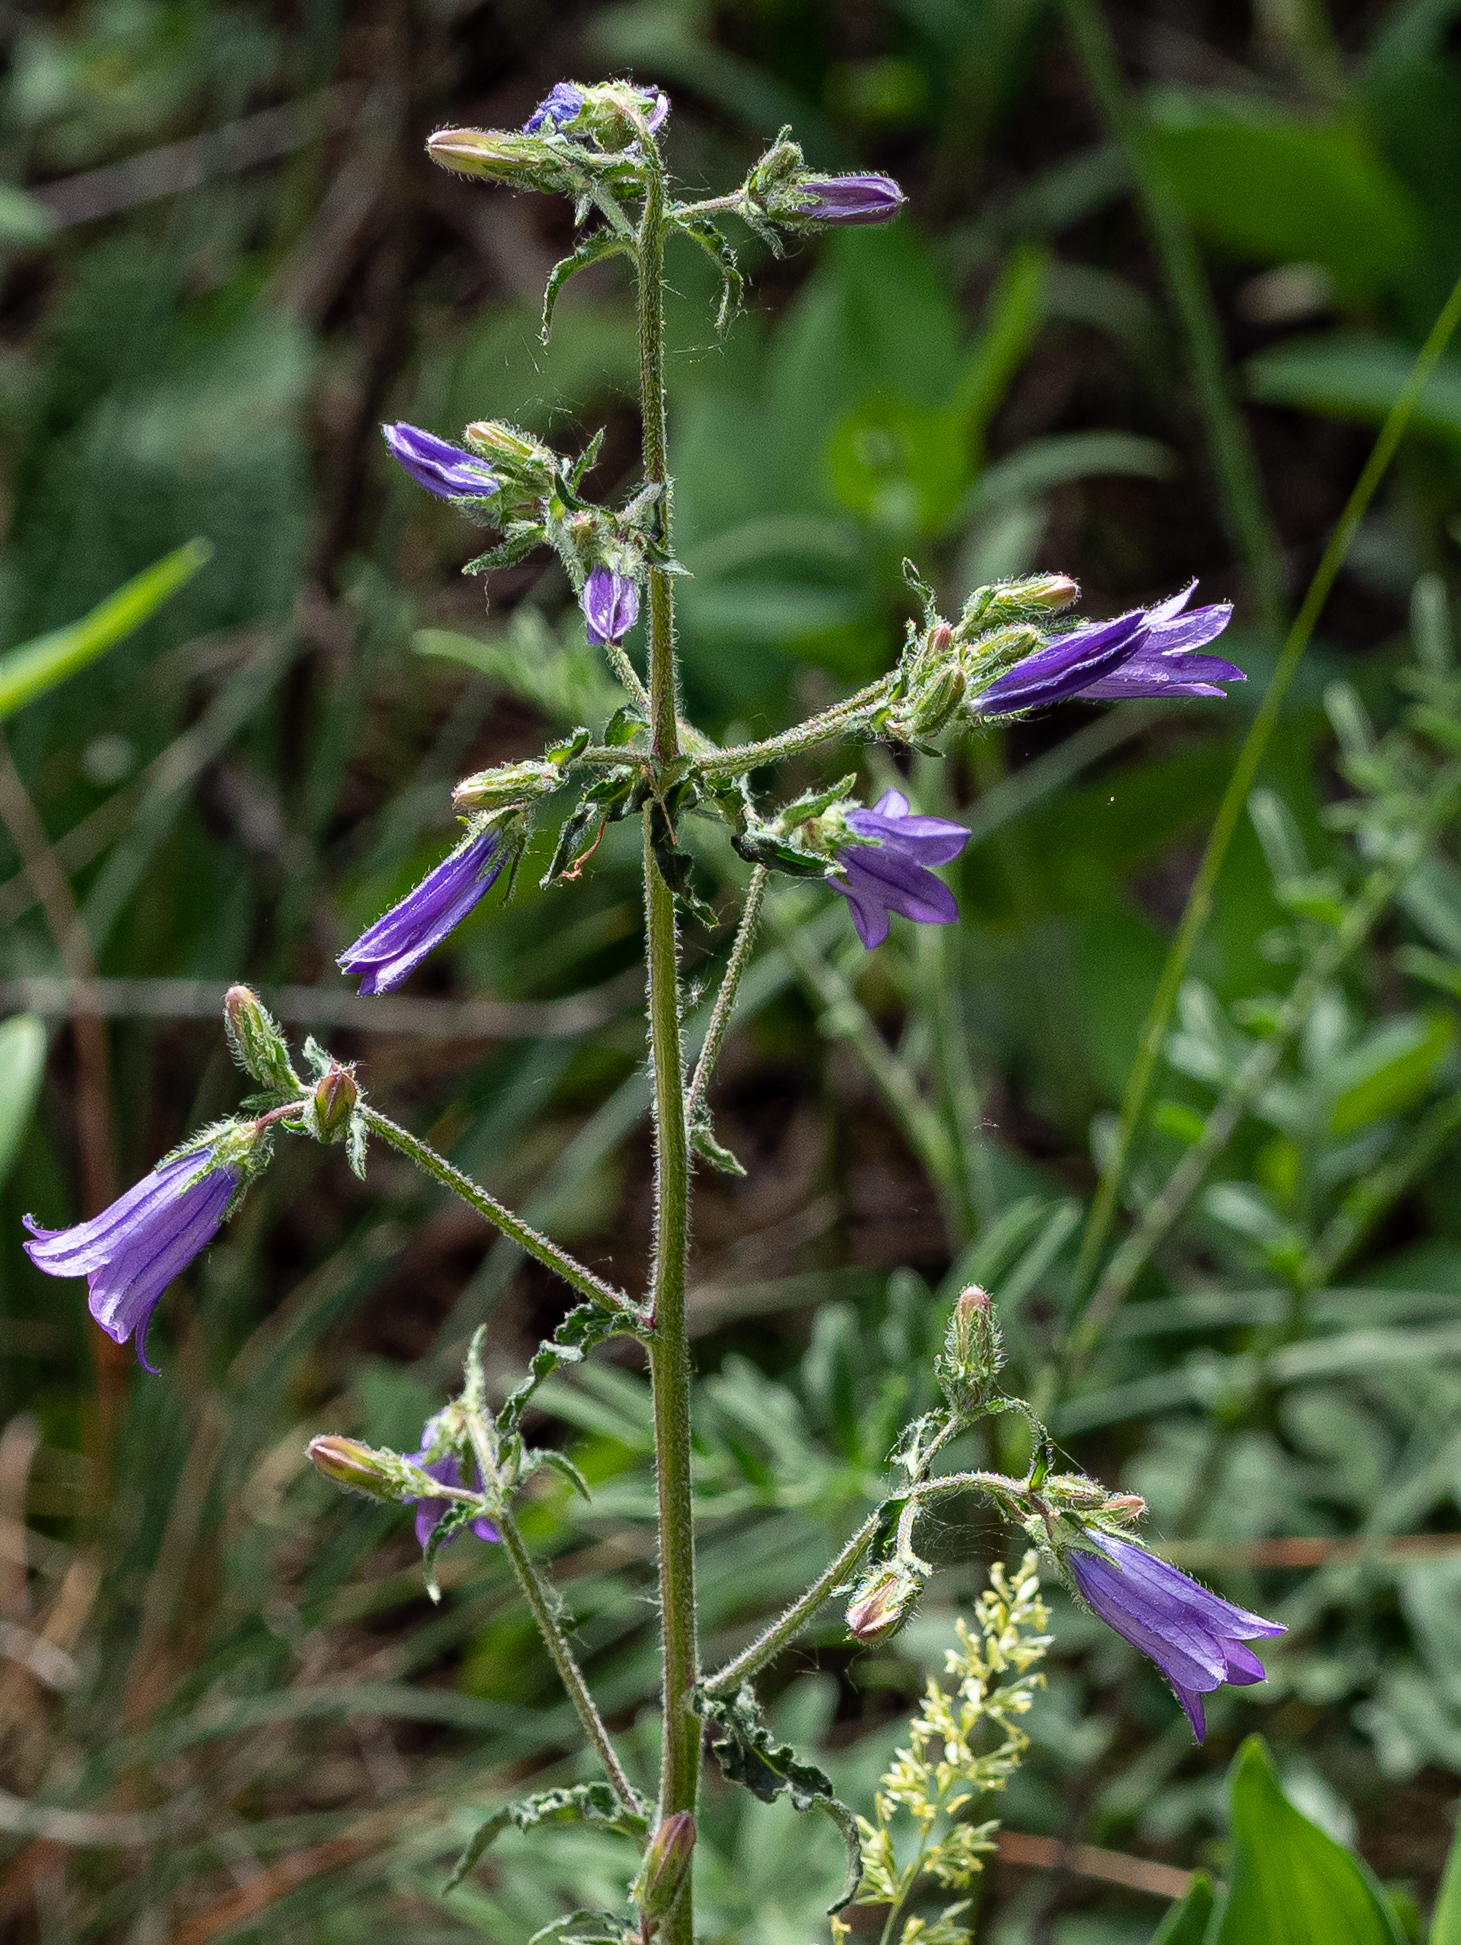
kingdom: Plantae
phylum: Tracheophyta
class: Magnoliopsida
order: Asterales
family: Campanulaceae
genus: Campanula
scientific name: Campanula sibirica
